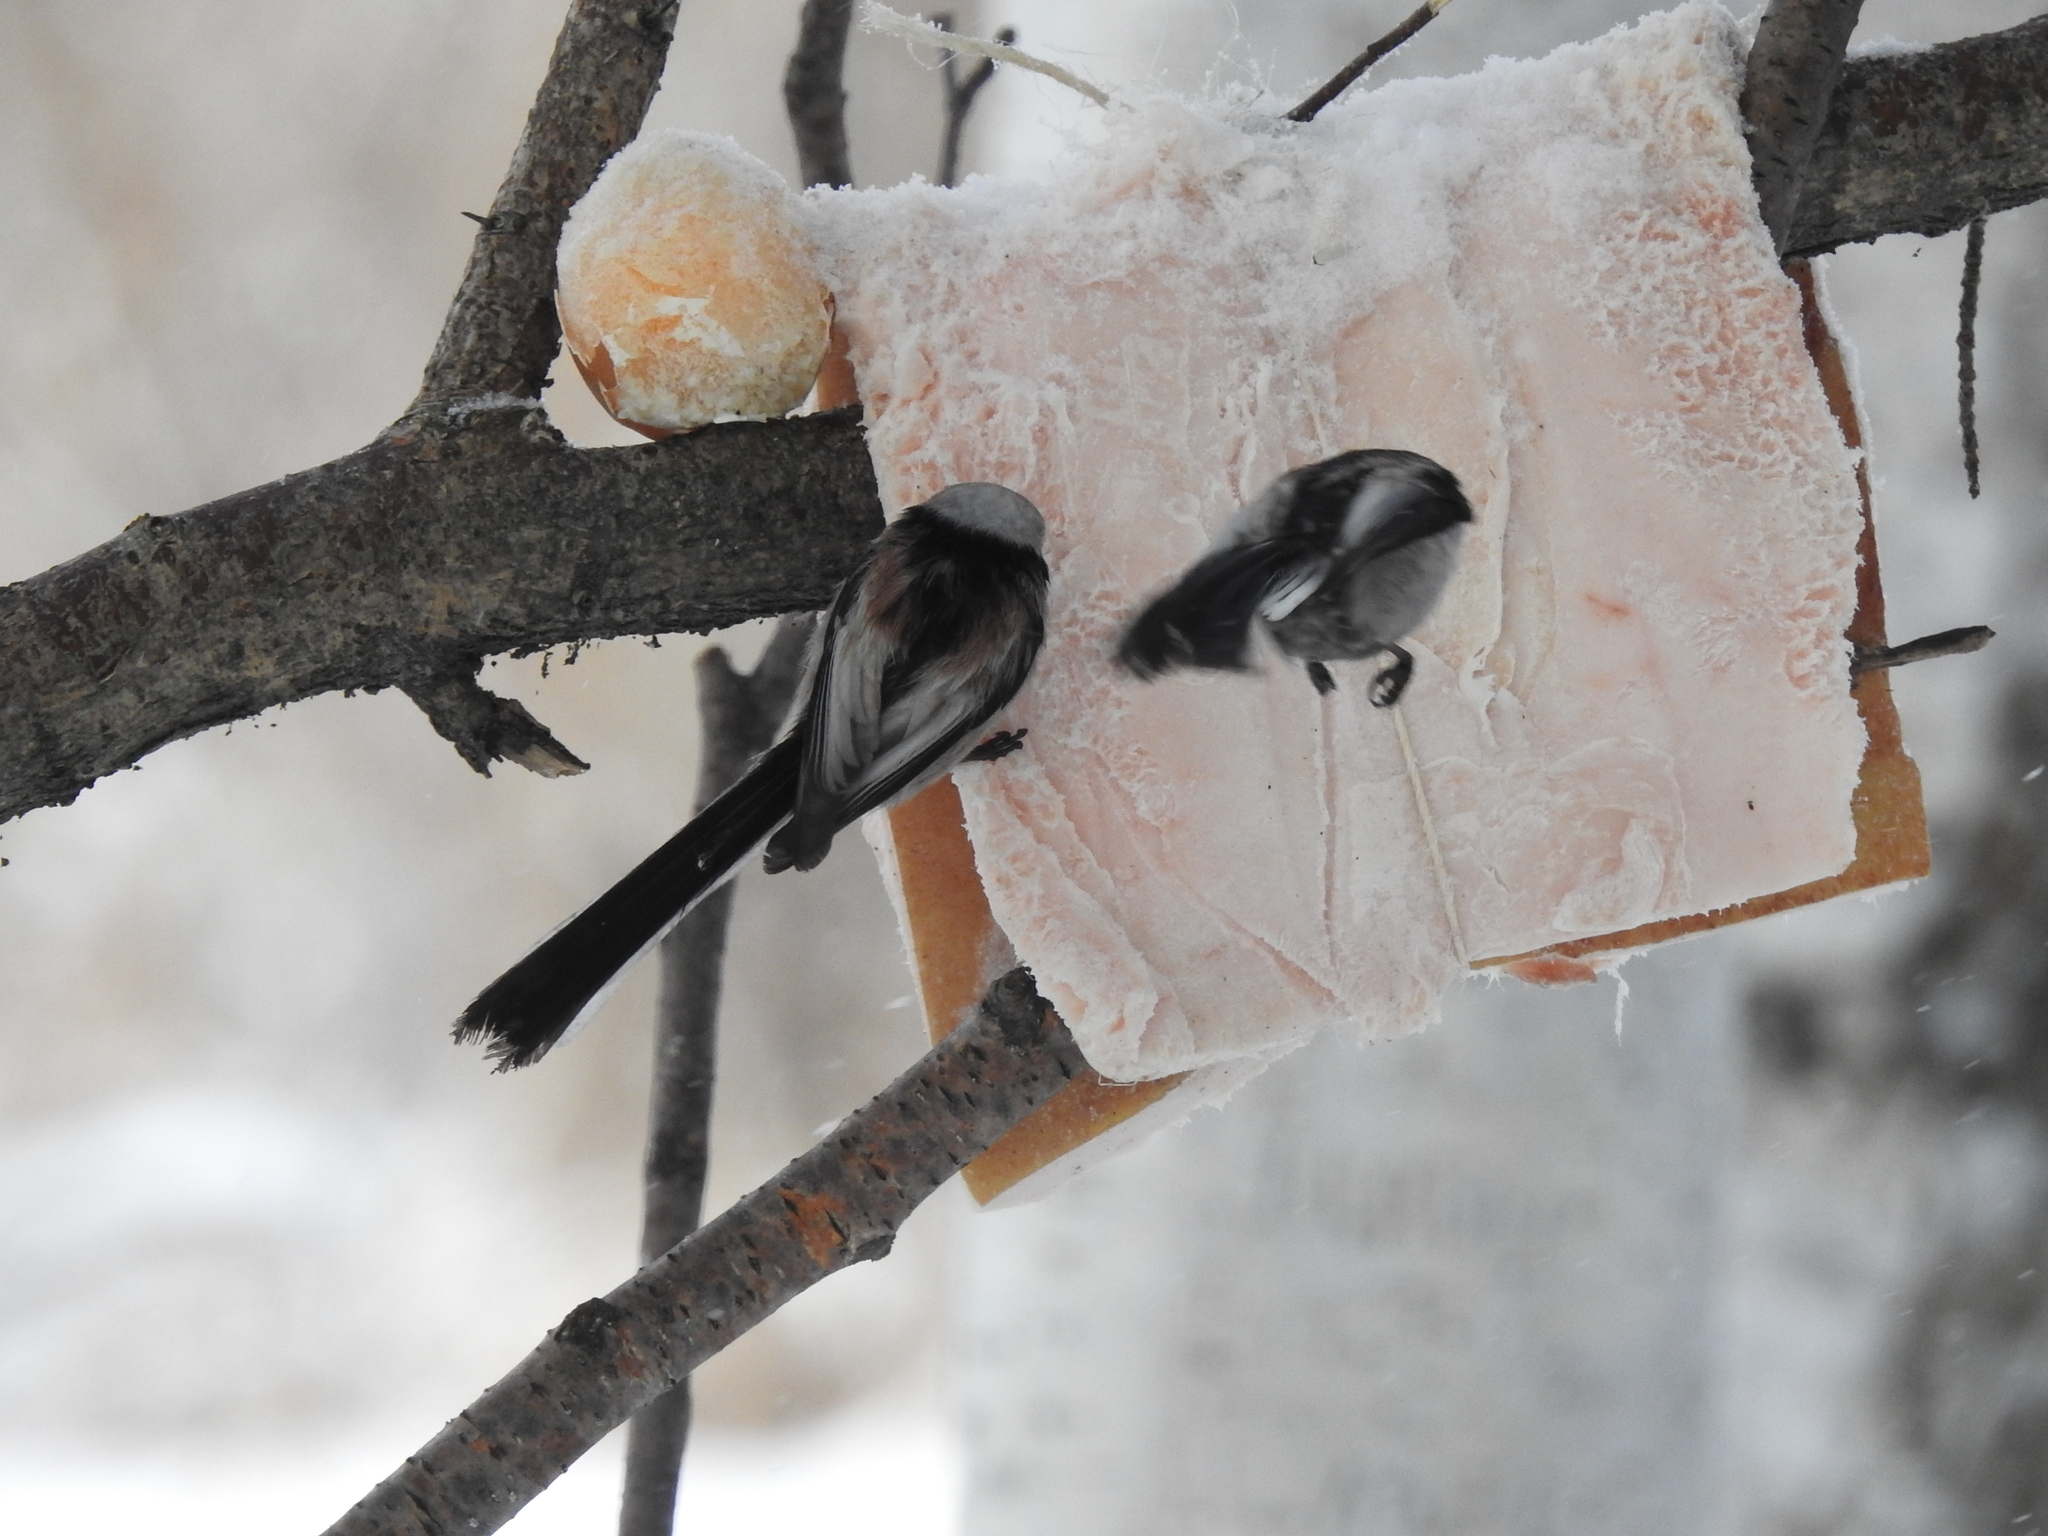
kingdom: Animalia
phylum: Chordata
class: Aves
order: Passeriformes
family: Aegithalidae
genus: Aegithalos
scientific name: Aegithalos caudatus
